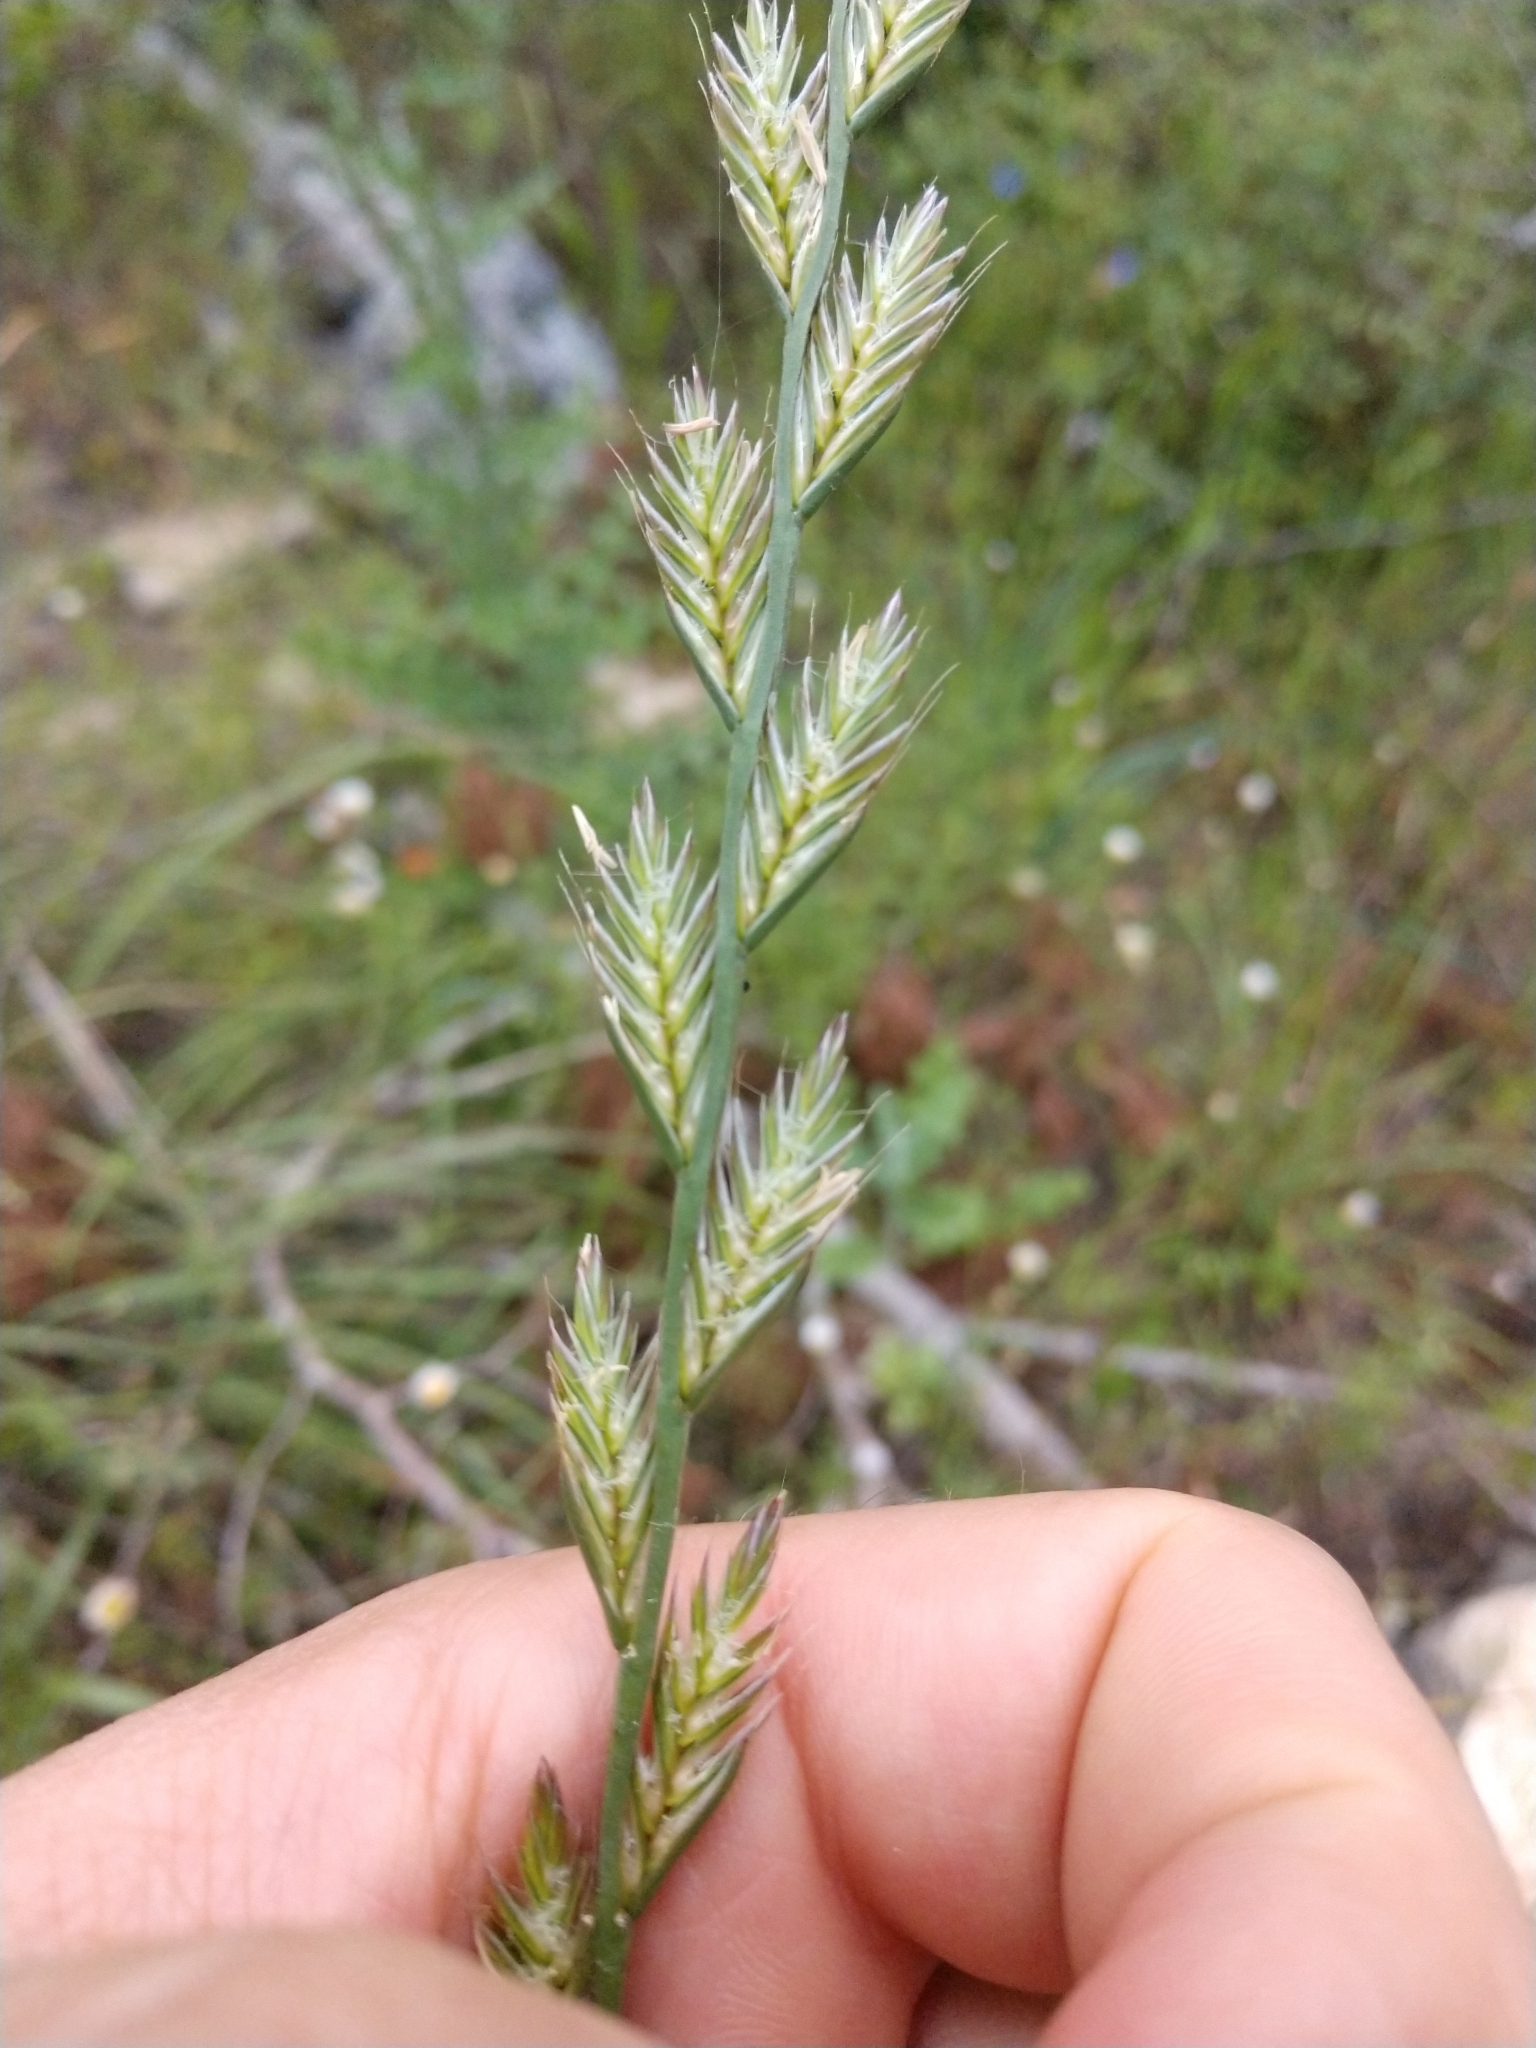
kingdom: Plantae
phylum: Tracheophyta
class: Liliopsida
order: Poales
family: Poaceae
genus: Lolium
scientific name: Lolium multiflorum
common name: Annual ryegrass
